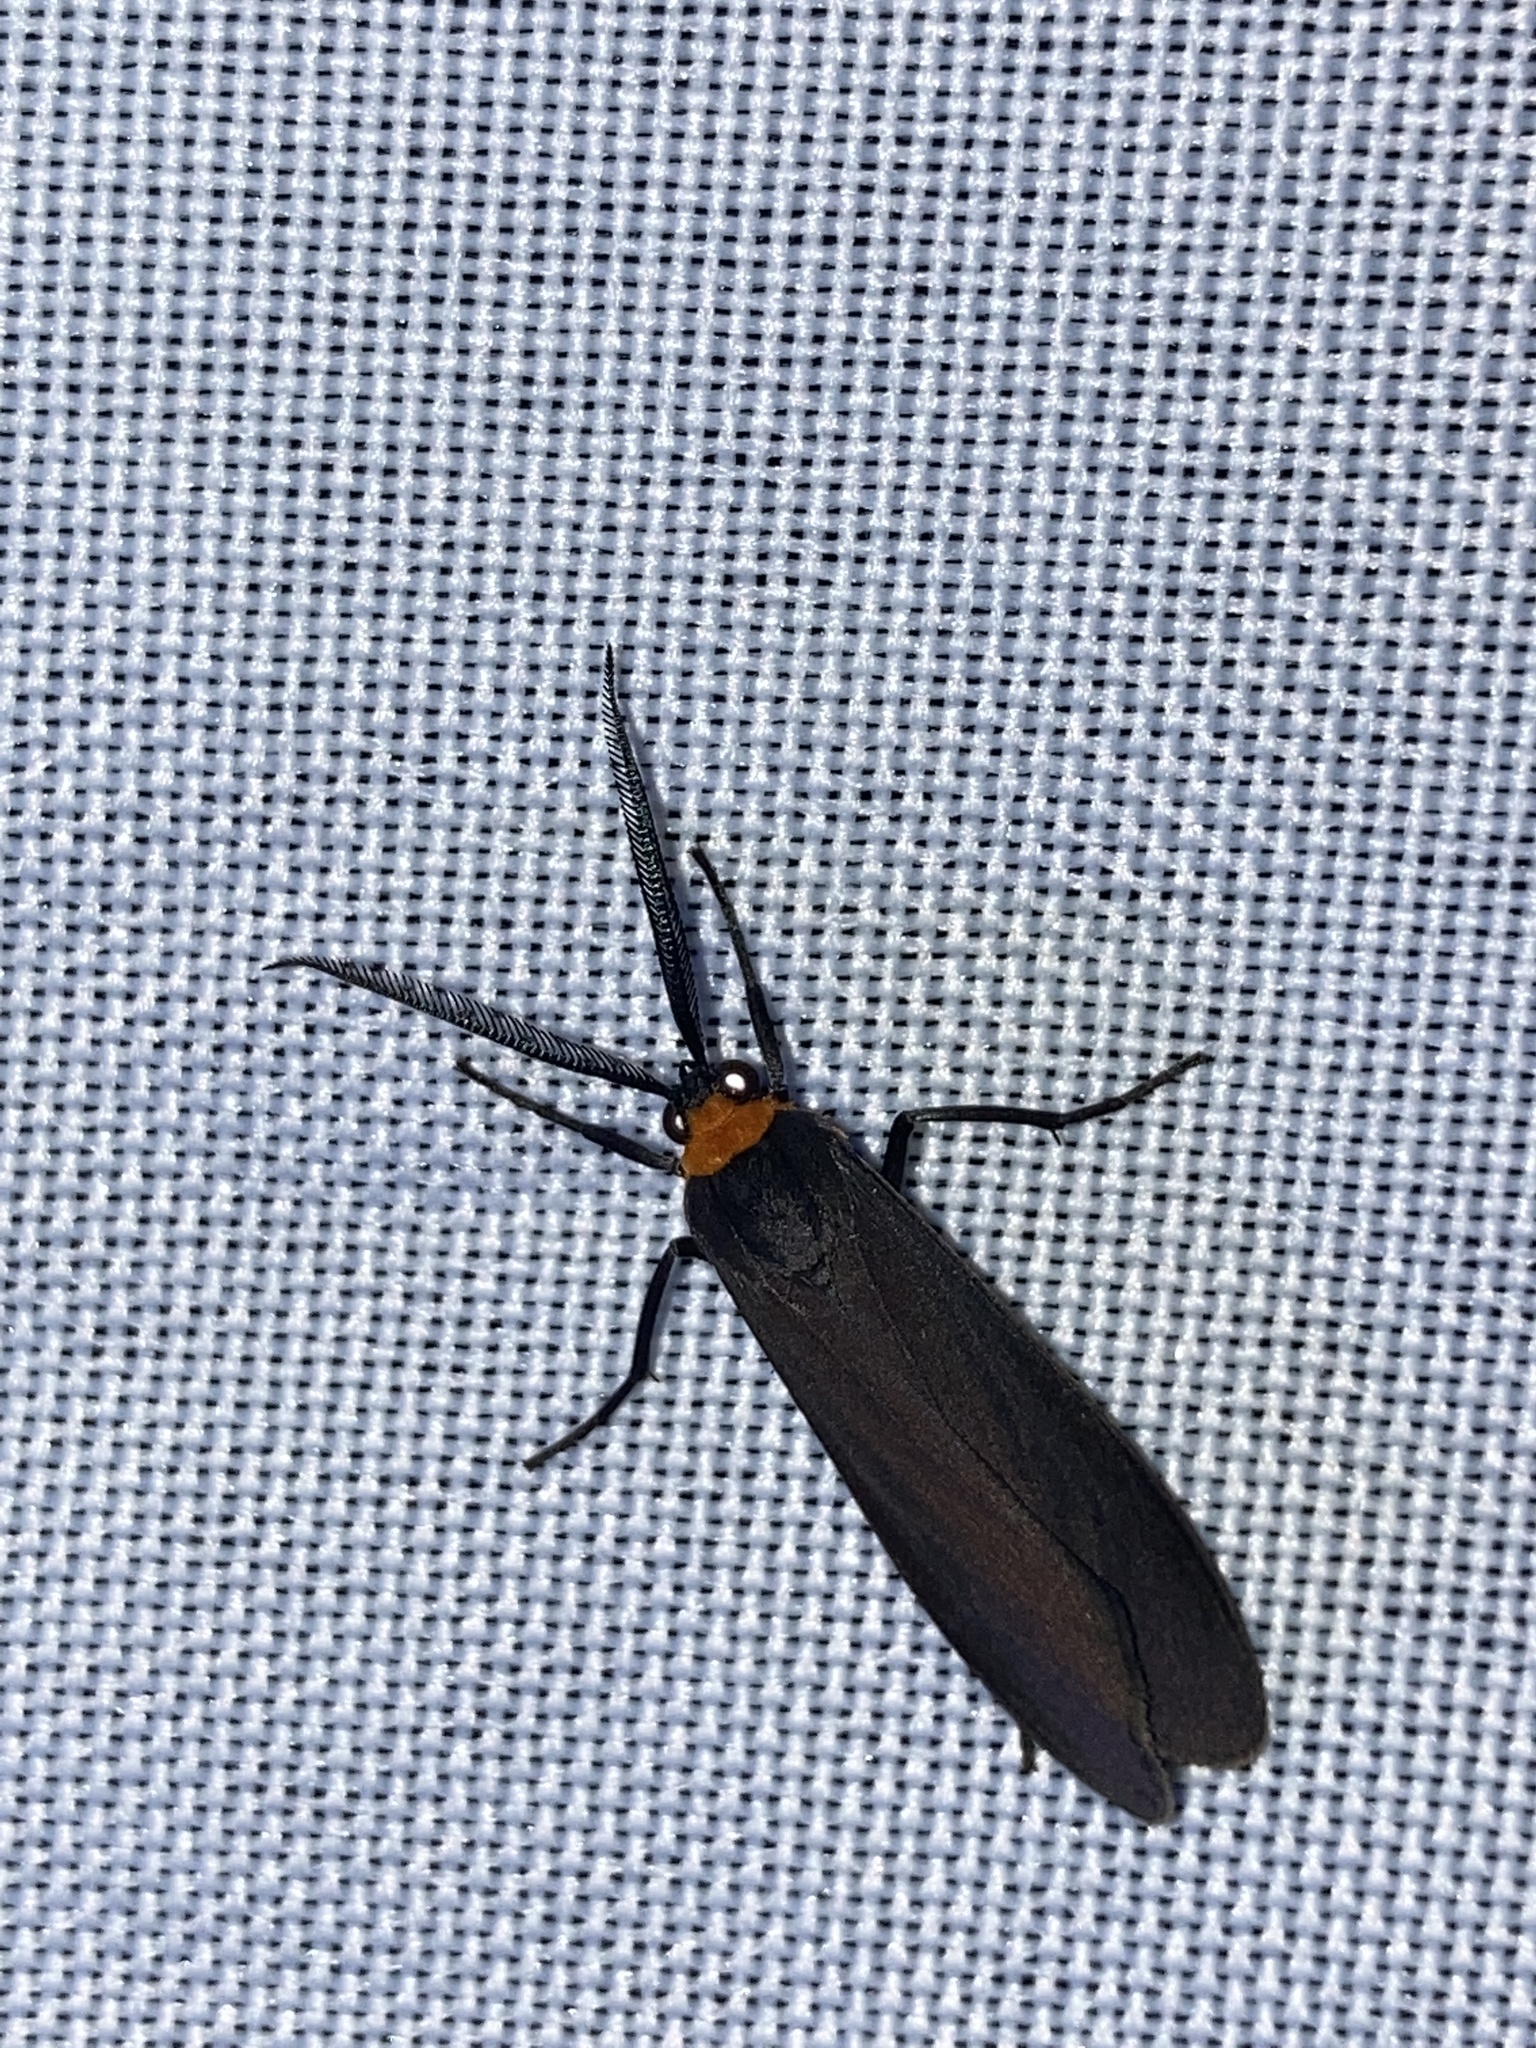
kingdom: Animalia
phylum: Arthropoda
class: Insecta
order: Lepidoptera
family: Erebidae
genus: Cisseps
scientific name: Cisseps fulvicollis
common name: Yellow-collared scape moth
